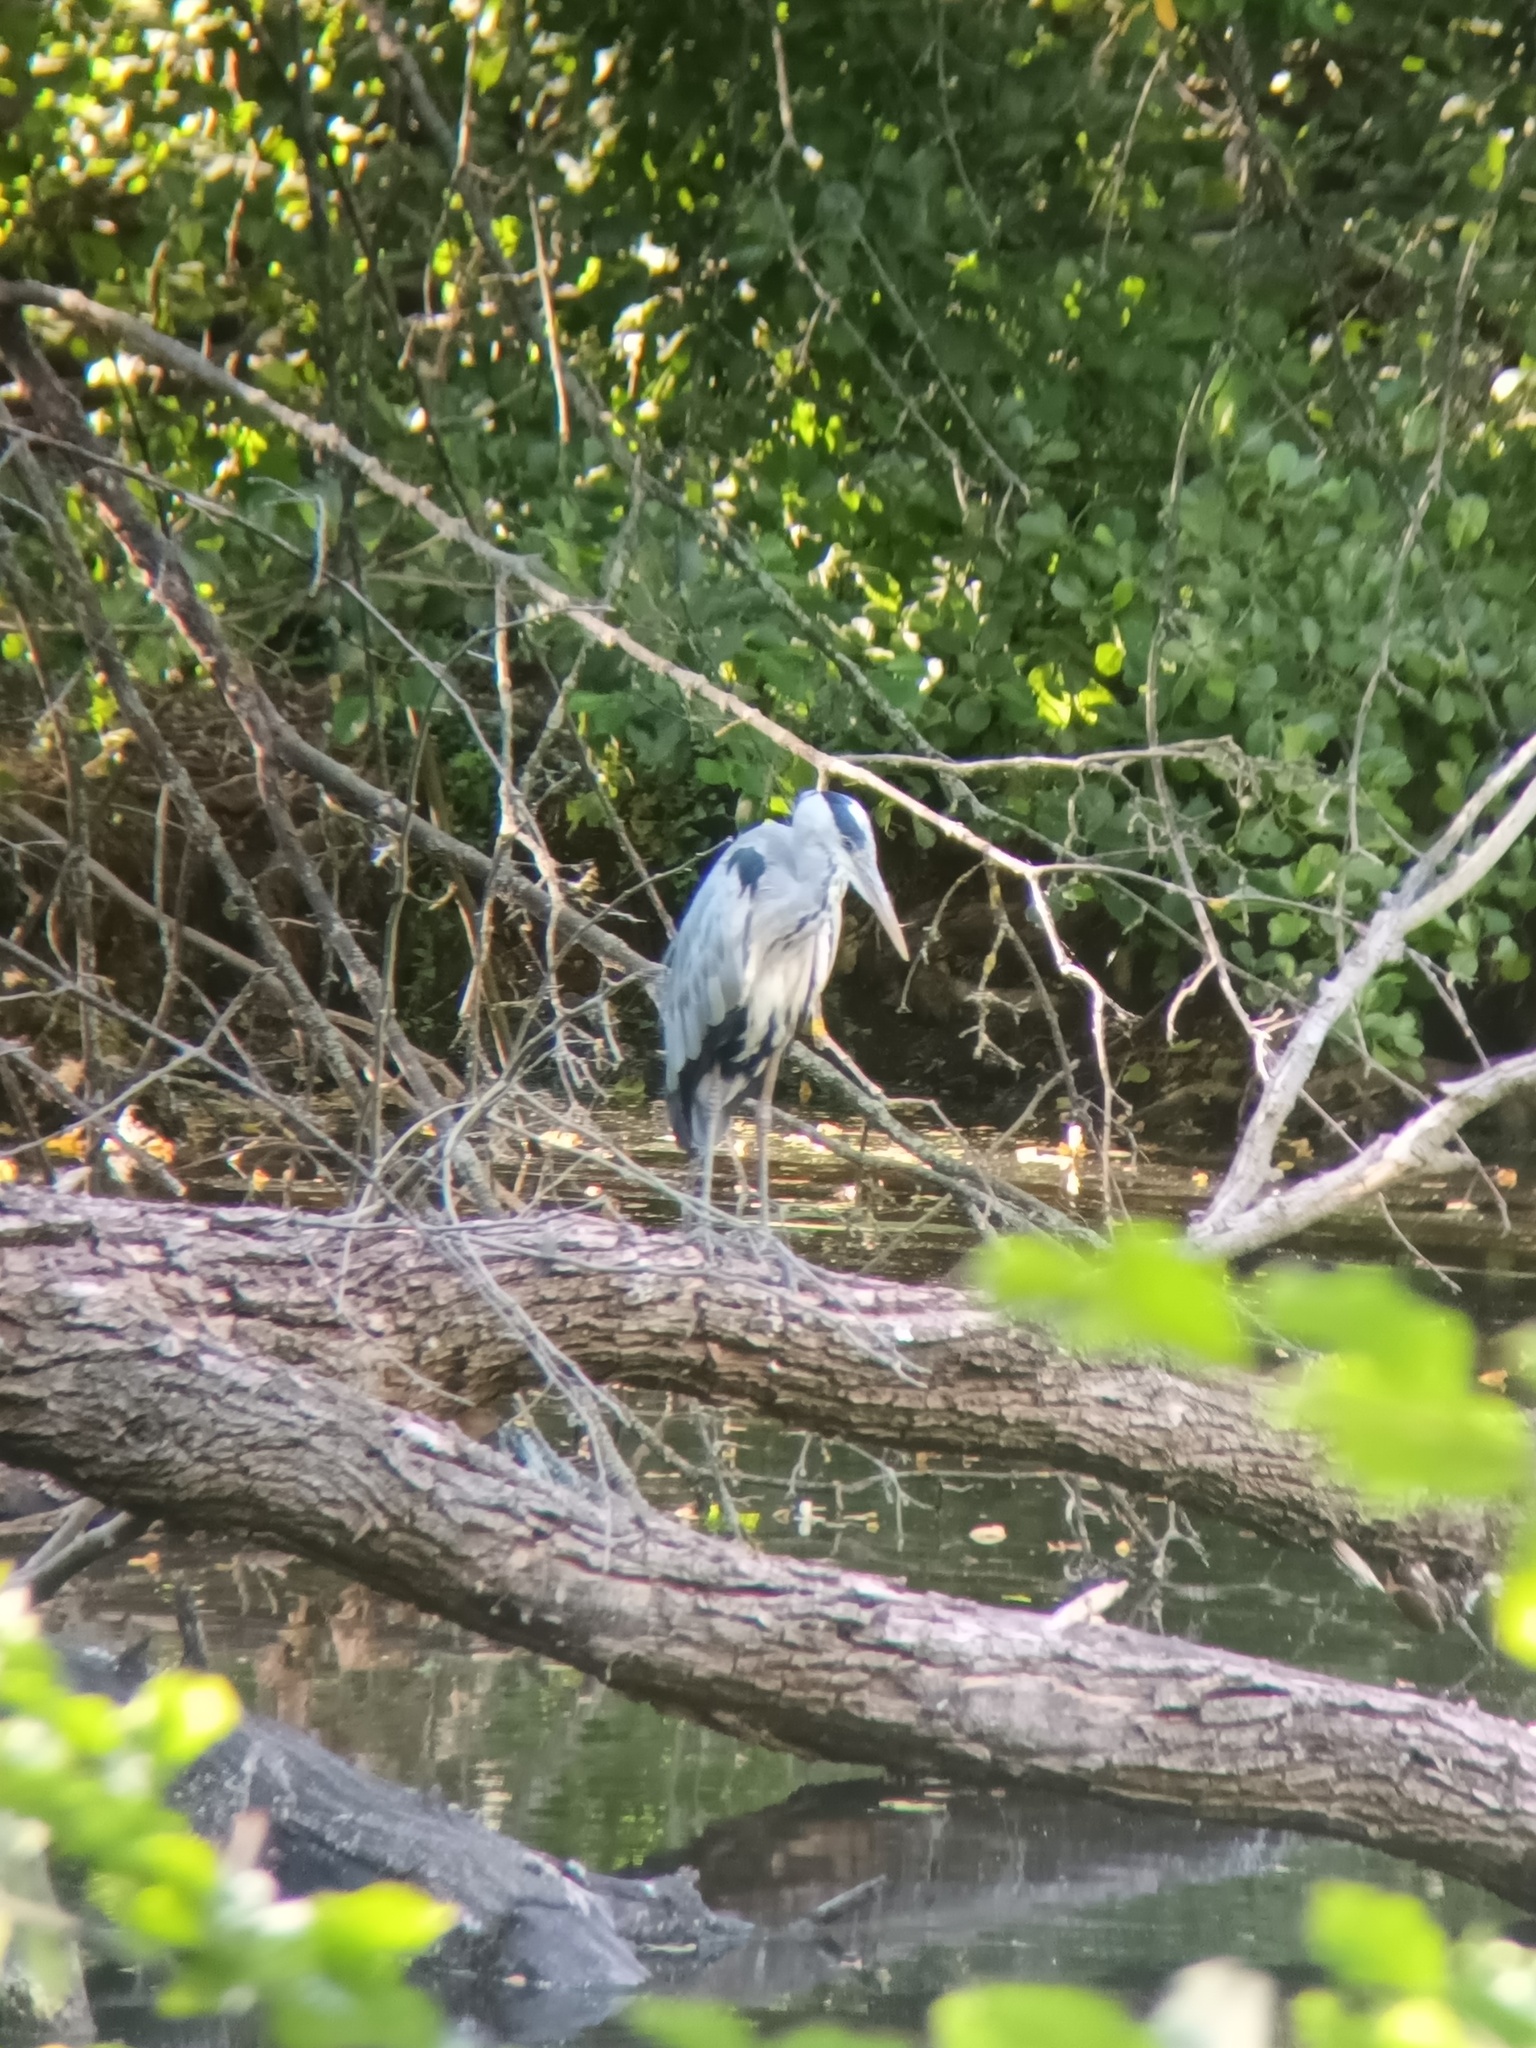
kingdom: Animalia
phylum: Chordata
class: Aves
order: Pelecaniformes
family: Ardeidae
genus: Ardea
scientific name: Ardea cinerea
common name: Grey heron
